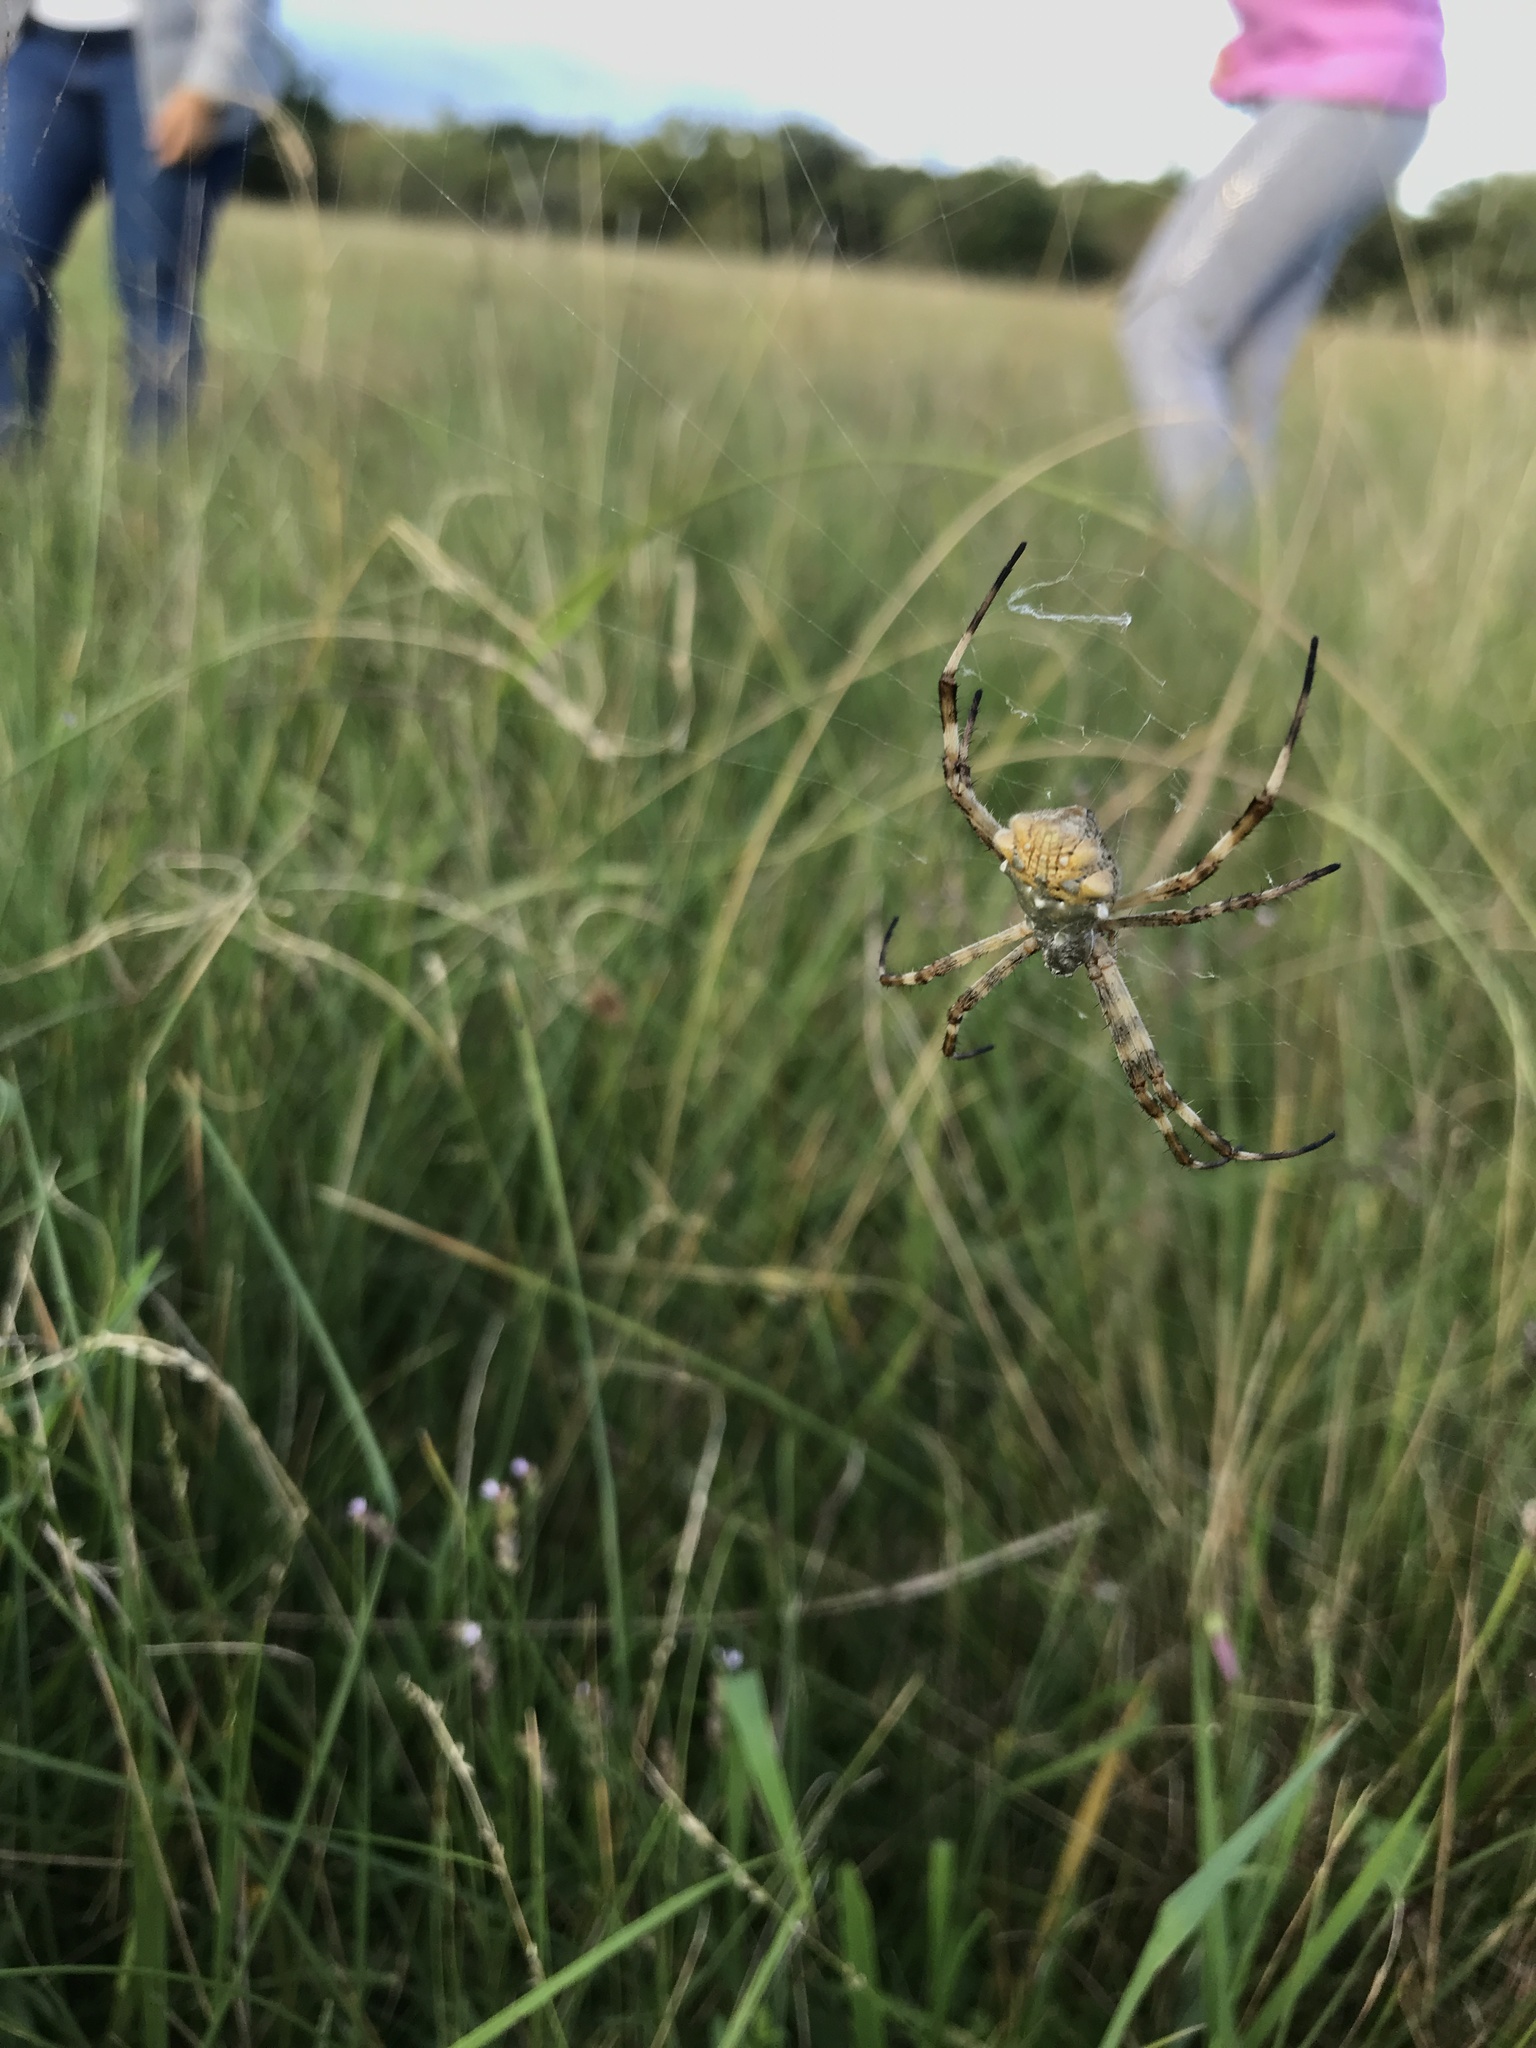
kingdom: Animalia
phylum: Arthropoda
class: Arachnida
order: Araneae
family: Araneidae
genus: Argiope
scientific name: Argiope argentata
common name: Orb weavers
